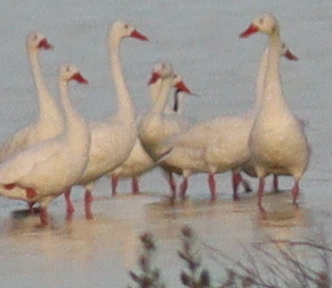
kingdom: Animalia
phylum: Chordata
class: Aves
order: Anseriformes
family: Anatidae
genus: Coscoroba
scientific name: Coscoroba coscoroba
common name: Coscoroba swan
